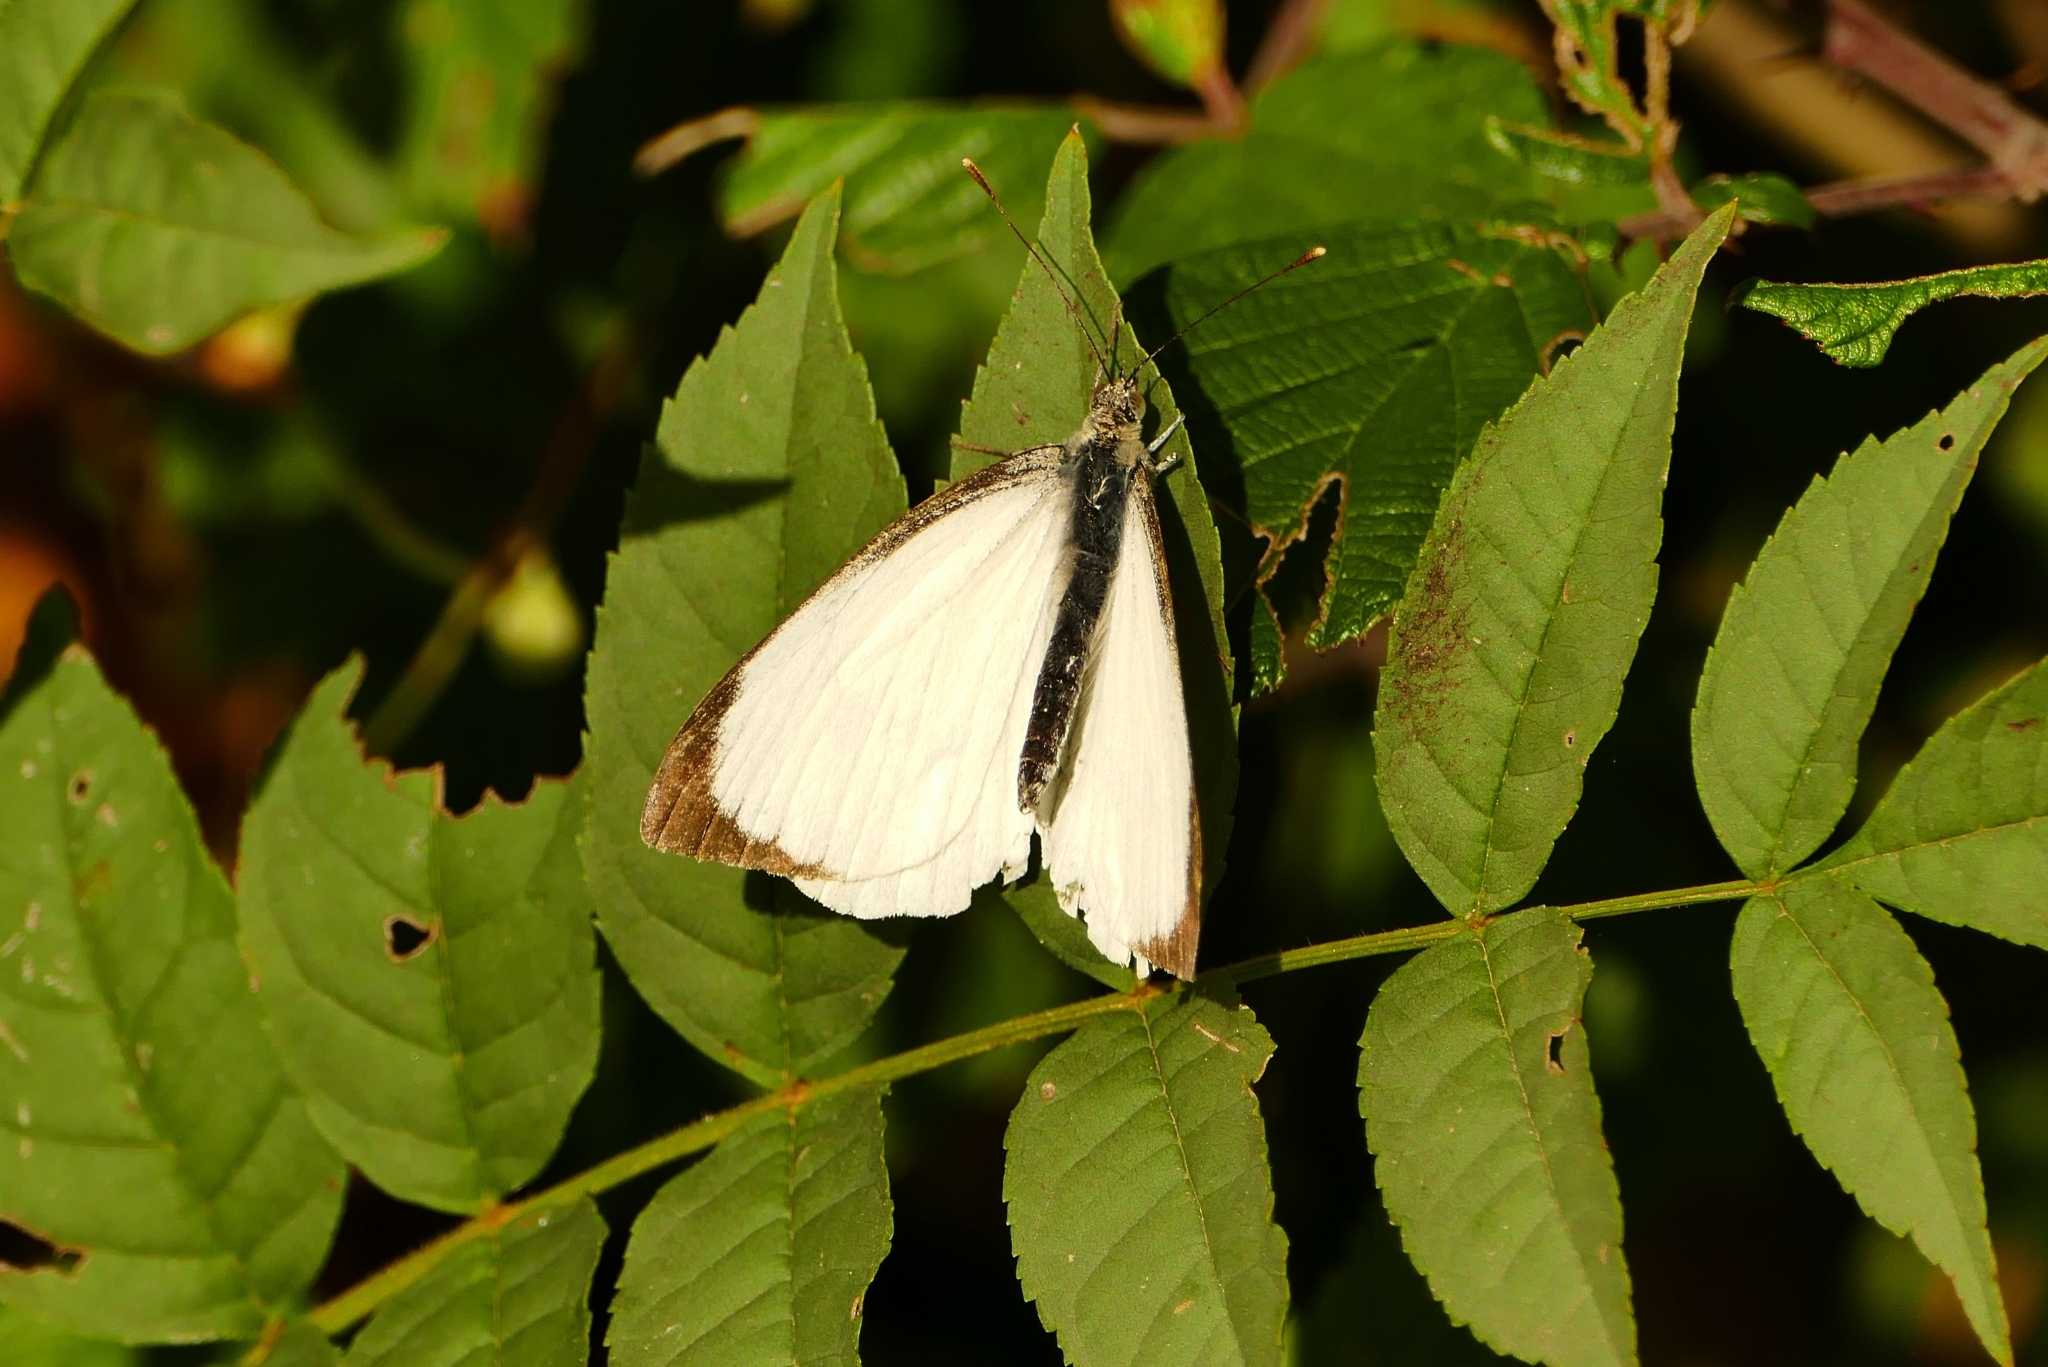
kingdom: Animalia
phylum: Arthropoda
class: Insecta
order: Lepidoptera
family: Pieridae
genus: Pieris
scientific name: Pieris brassicae
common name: Large white
